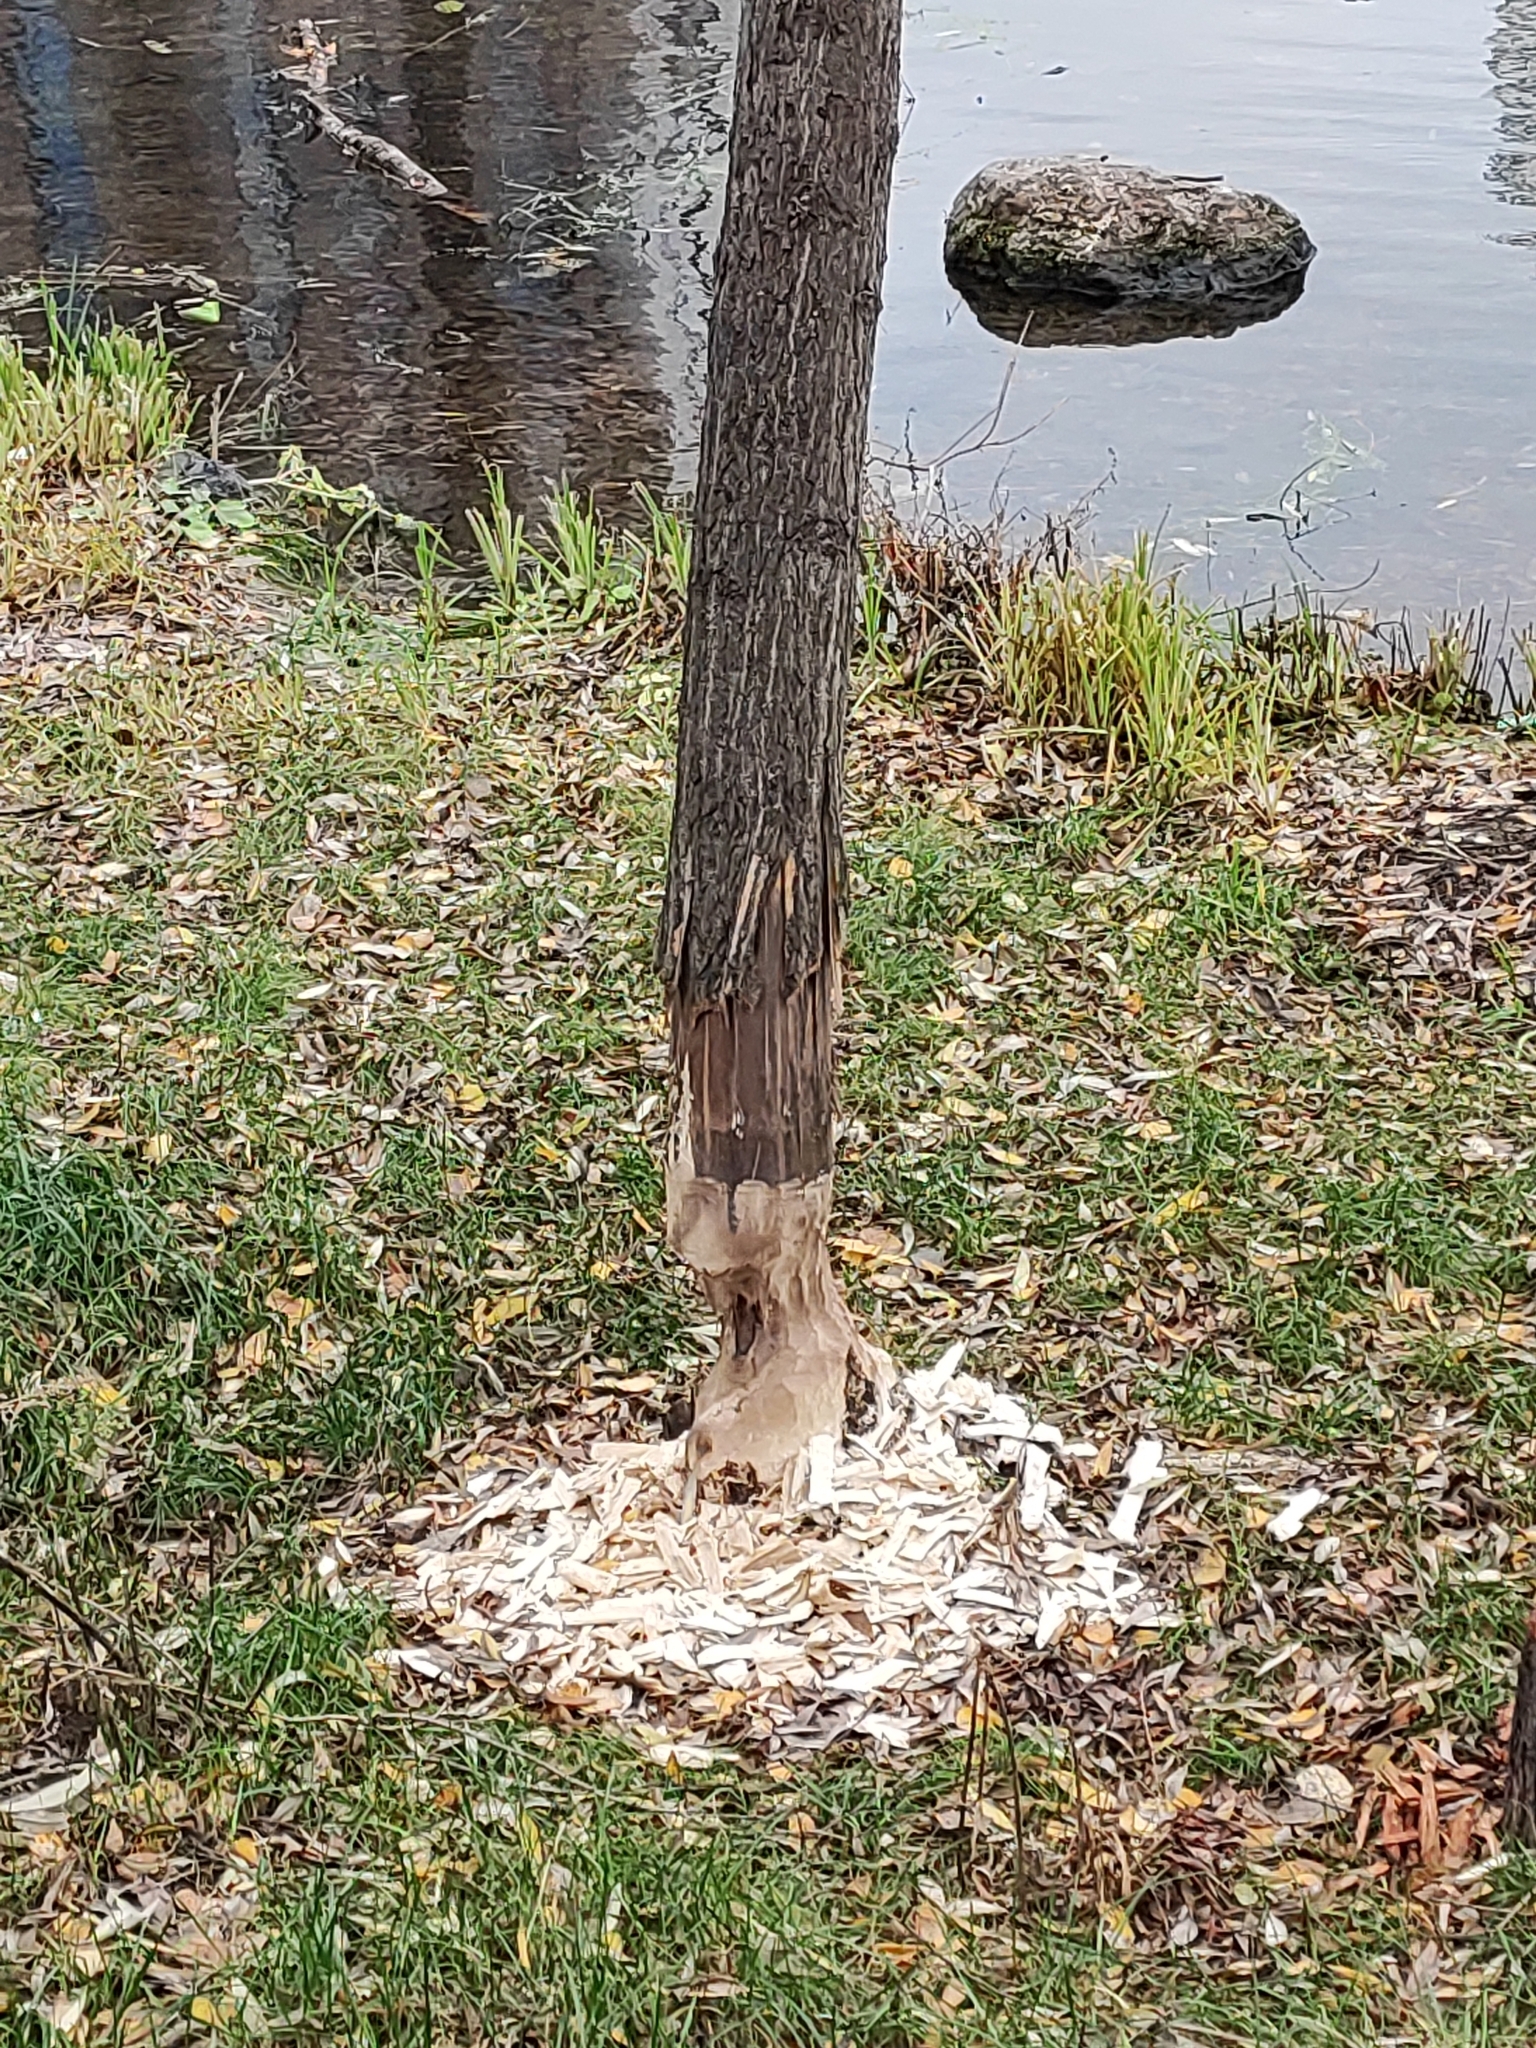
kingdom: Animalia
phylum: Chordata
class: Mammalia
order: Rodentia
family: Castoridae
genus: Castor
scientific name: Castor fiber
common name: Eurasian beaver
